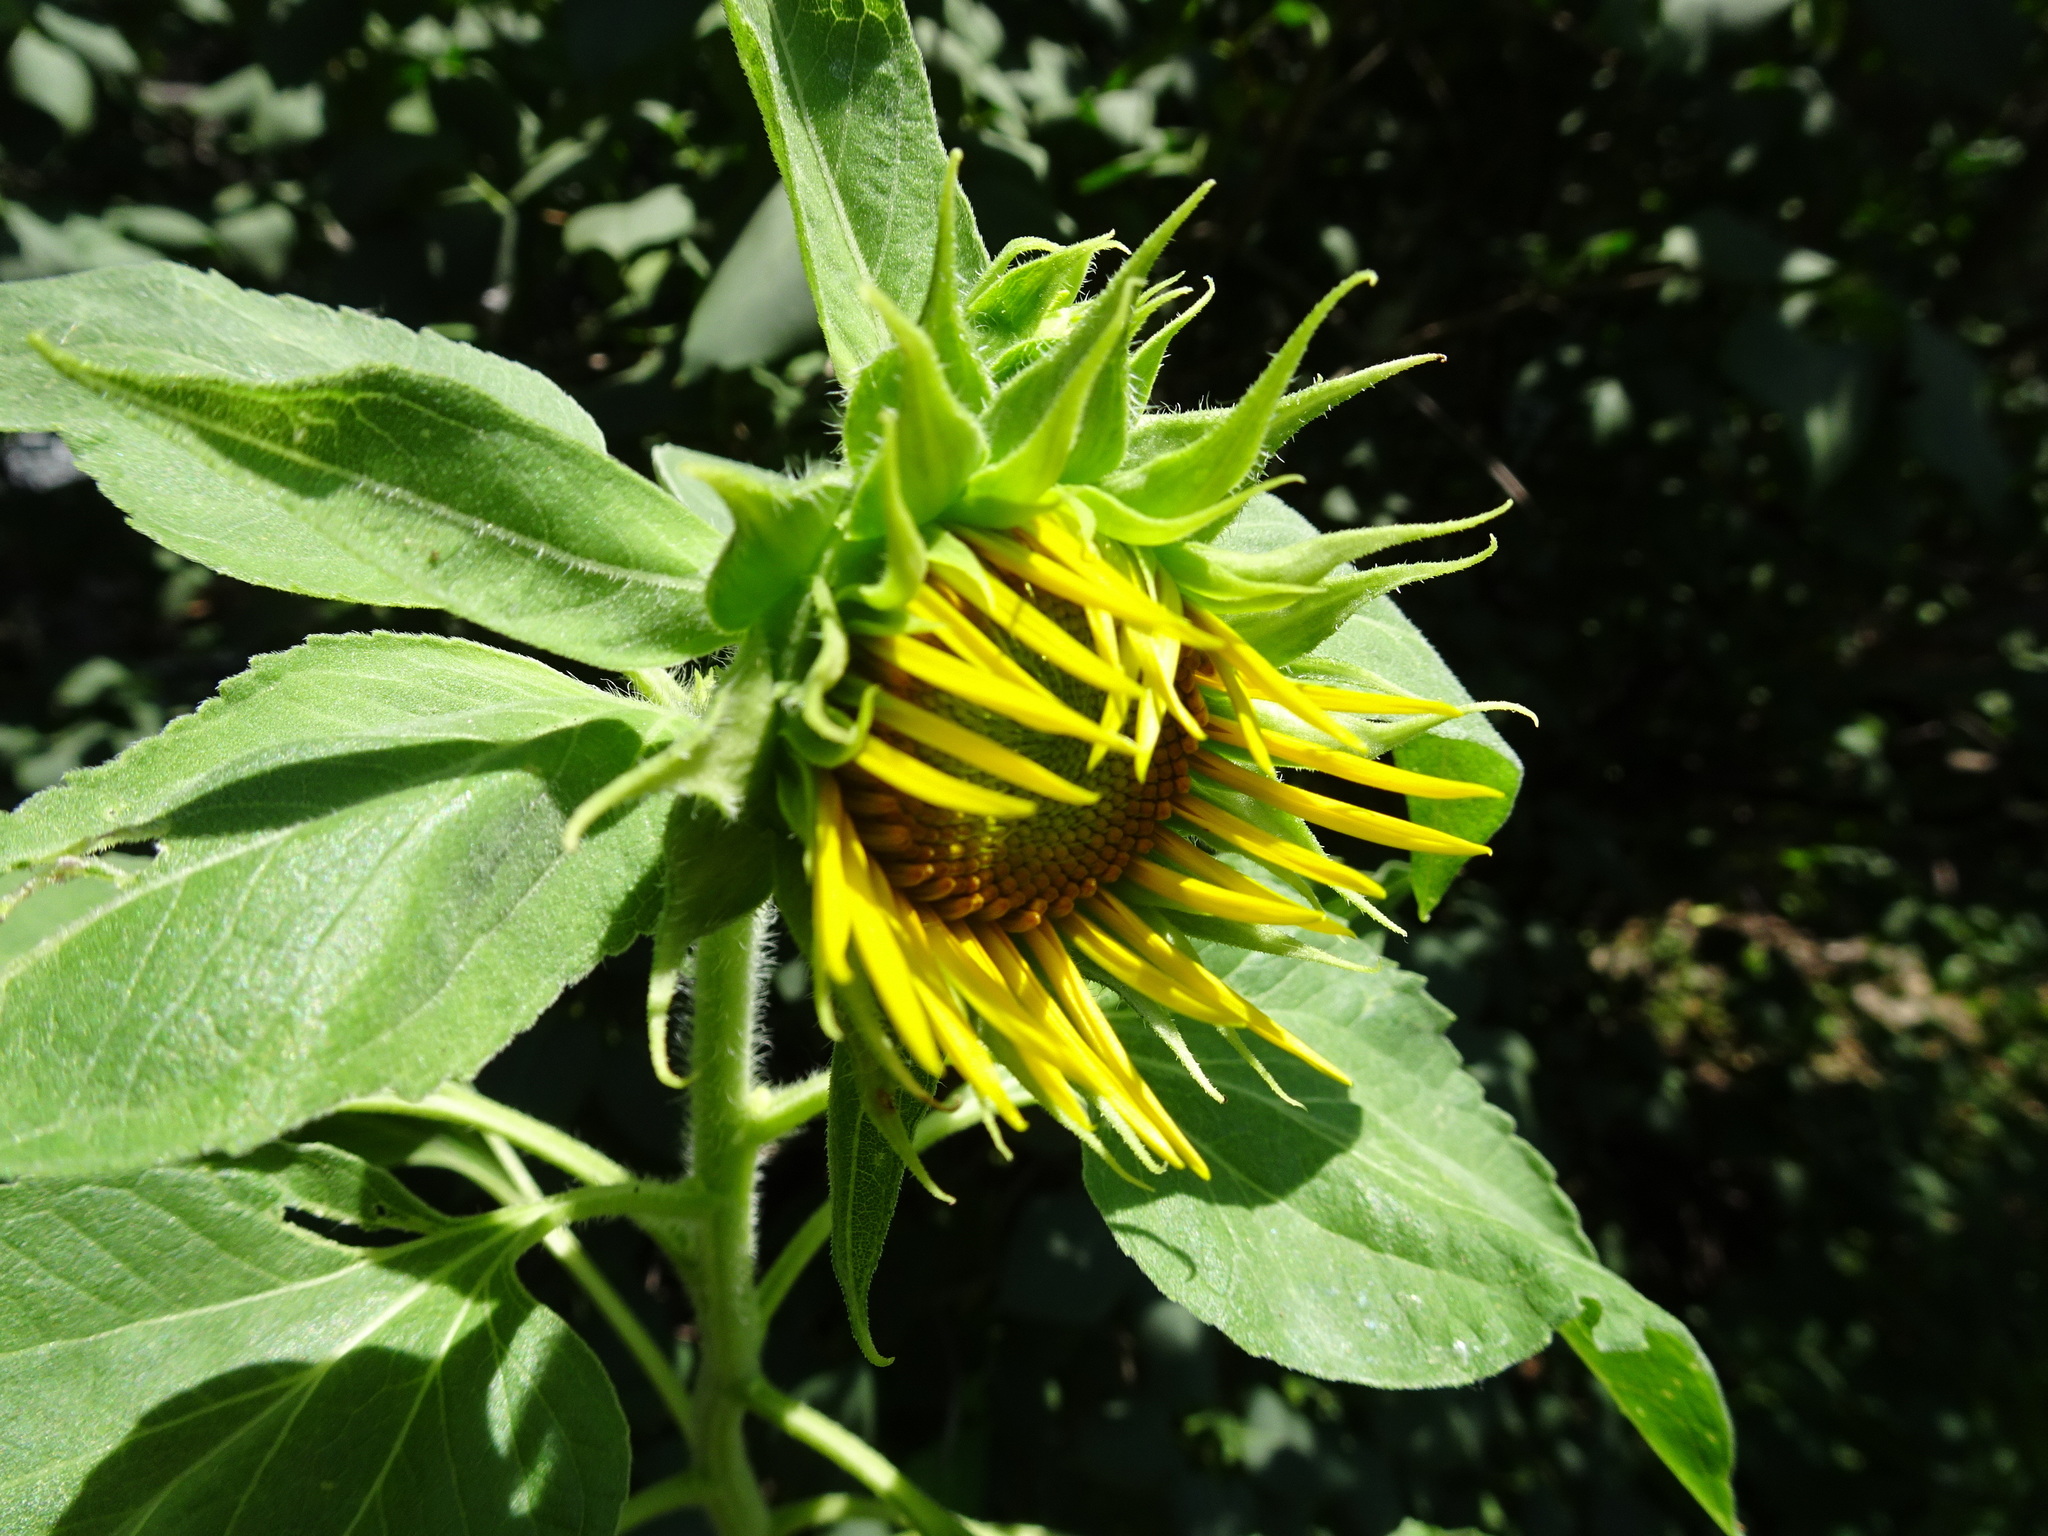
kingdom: Plantae
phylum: Tracheophyta
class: Magnoliopsida
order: Asterales
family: Asteraceae
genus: Helianthus
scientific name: Helianthus annuus
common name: Sunflower
